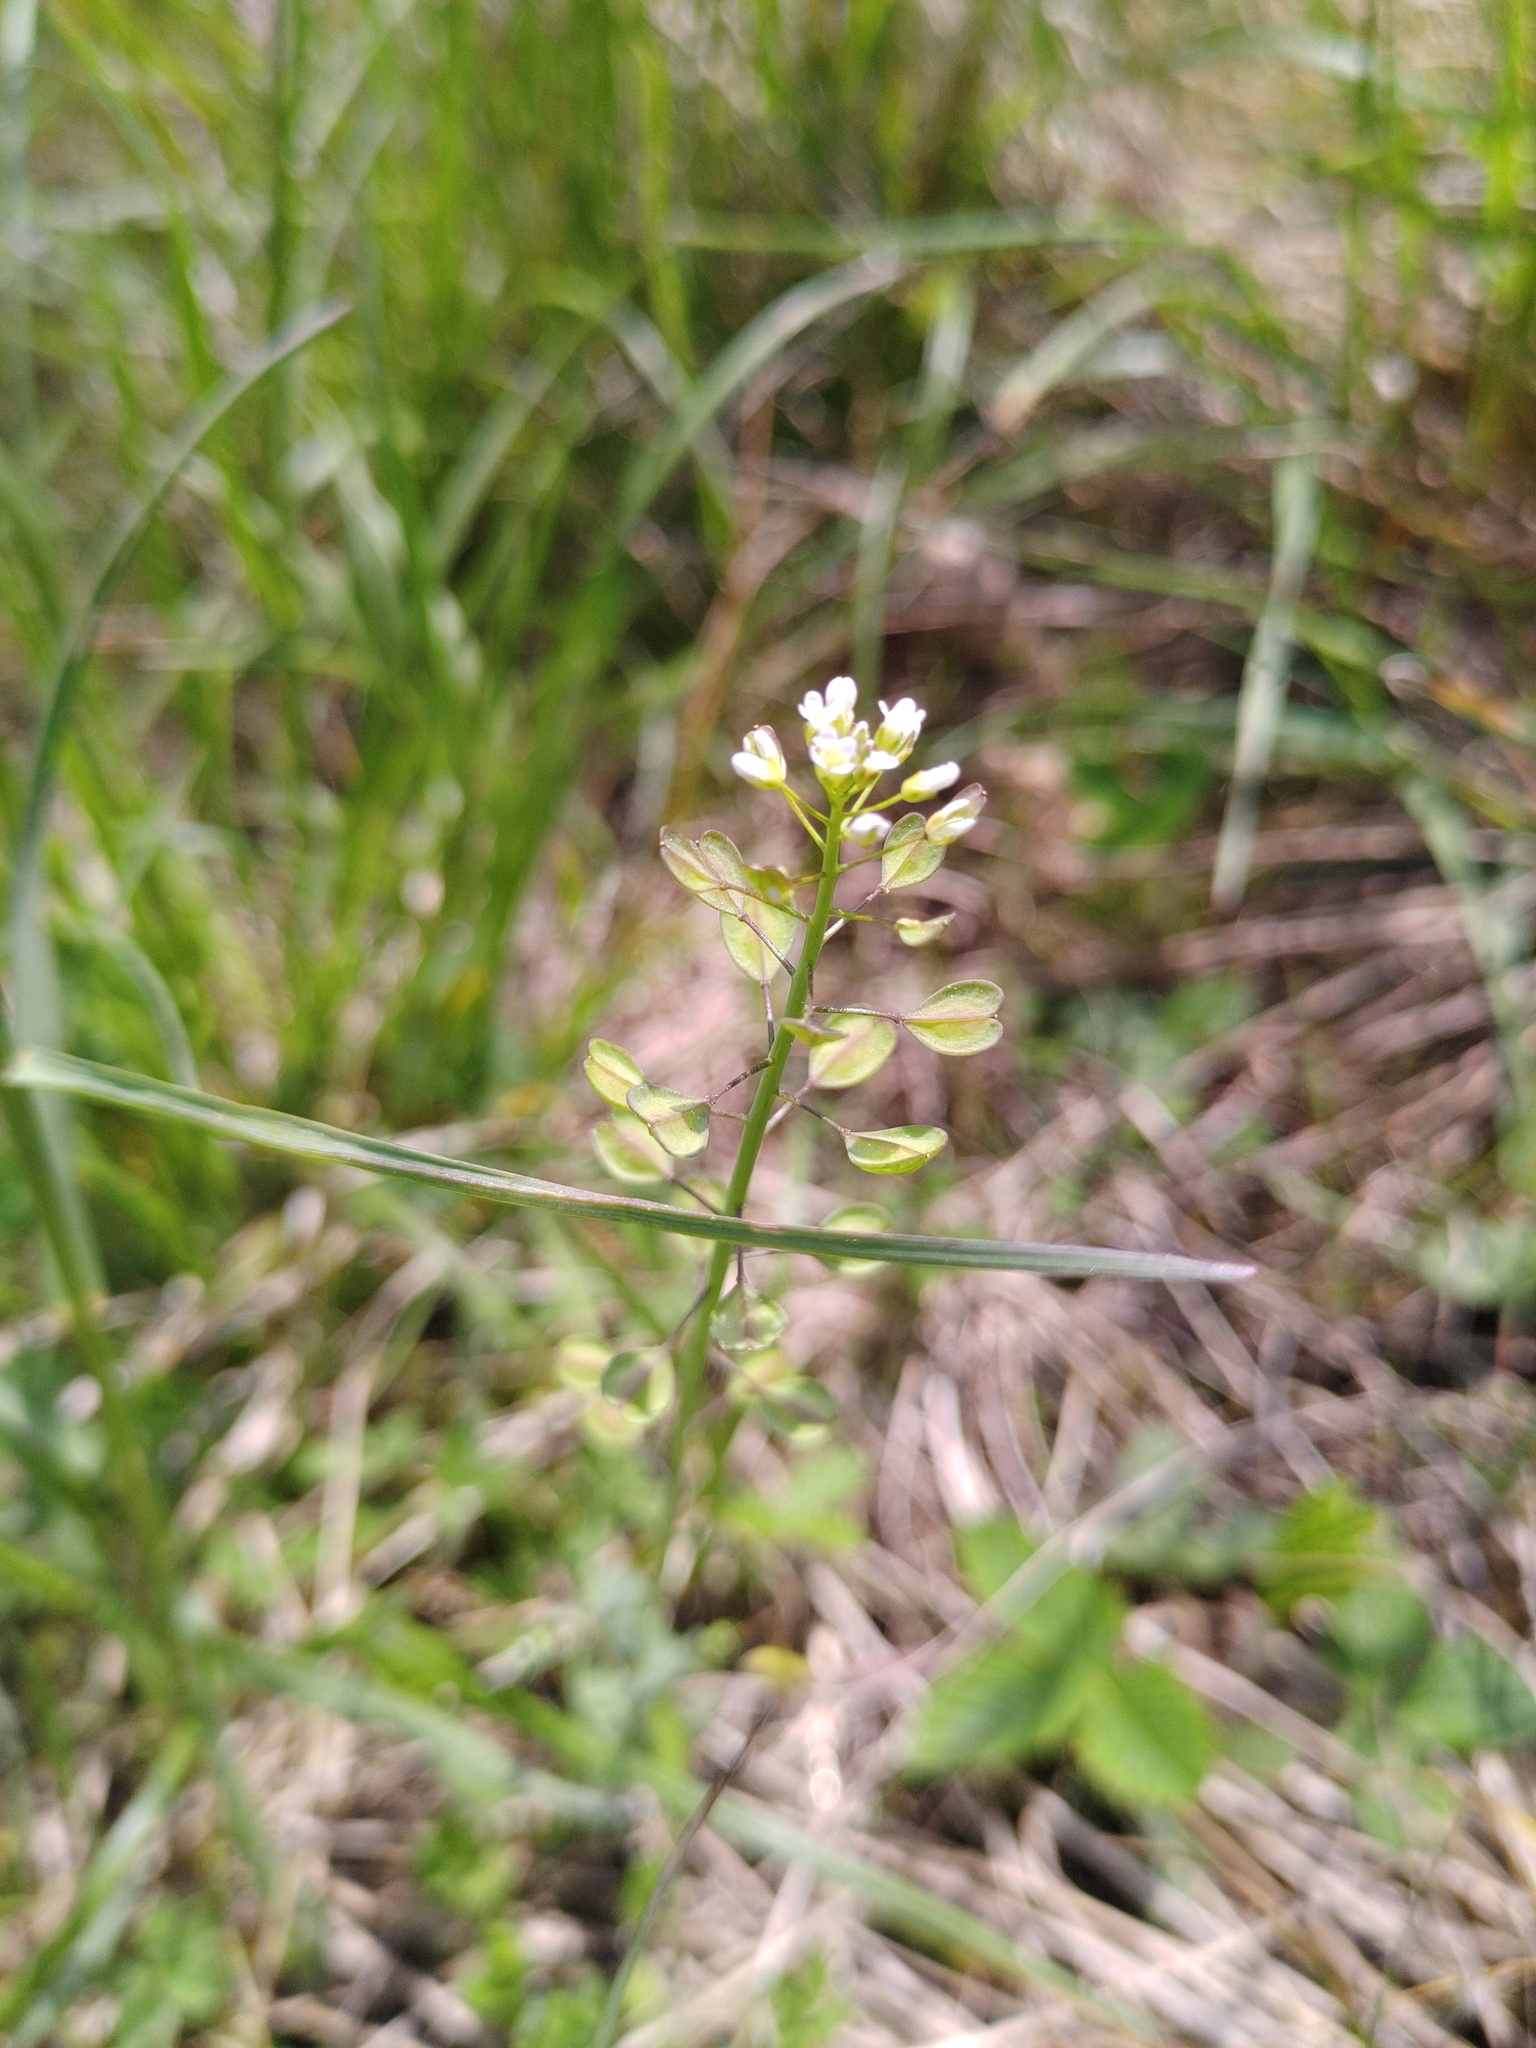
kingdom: Plantae
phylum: Tracheophyta
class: Magnoliopsida
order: Brassicales
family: Brassicaceae
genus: Noccaea
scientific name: Noccaea perfoliata
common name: Perfoliate pennycress
